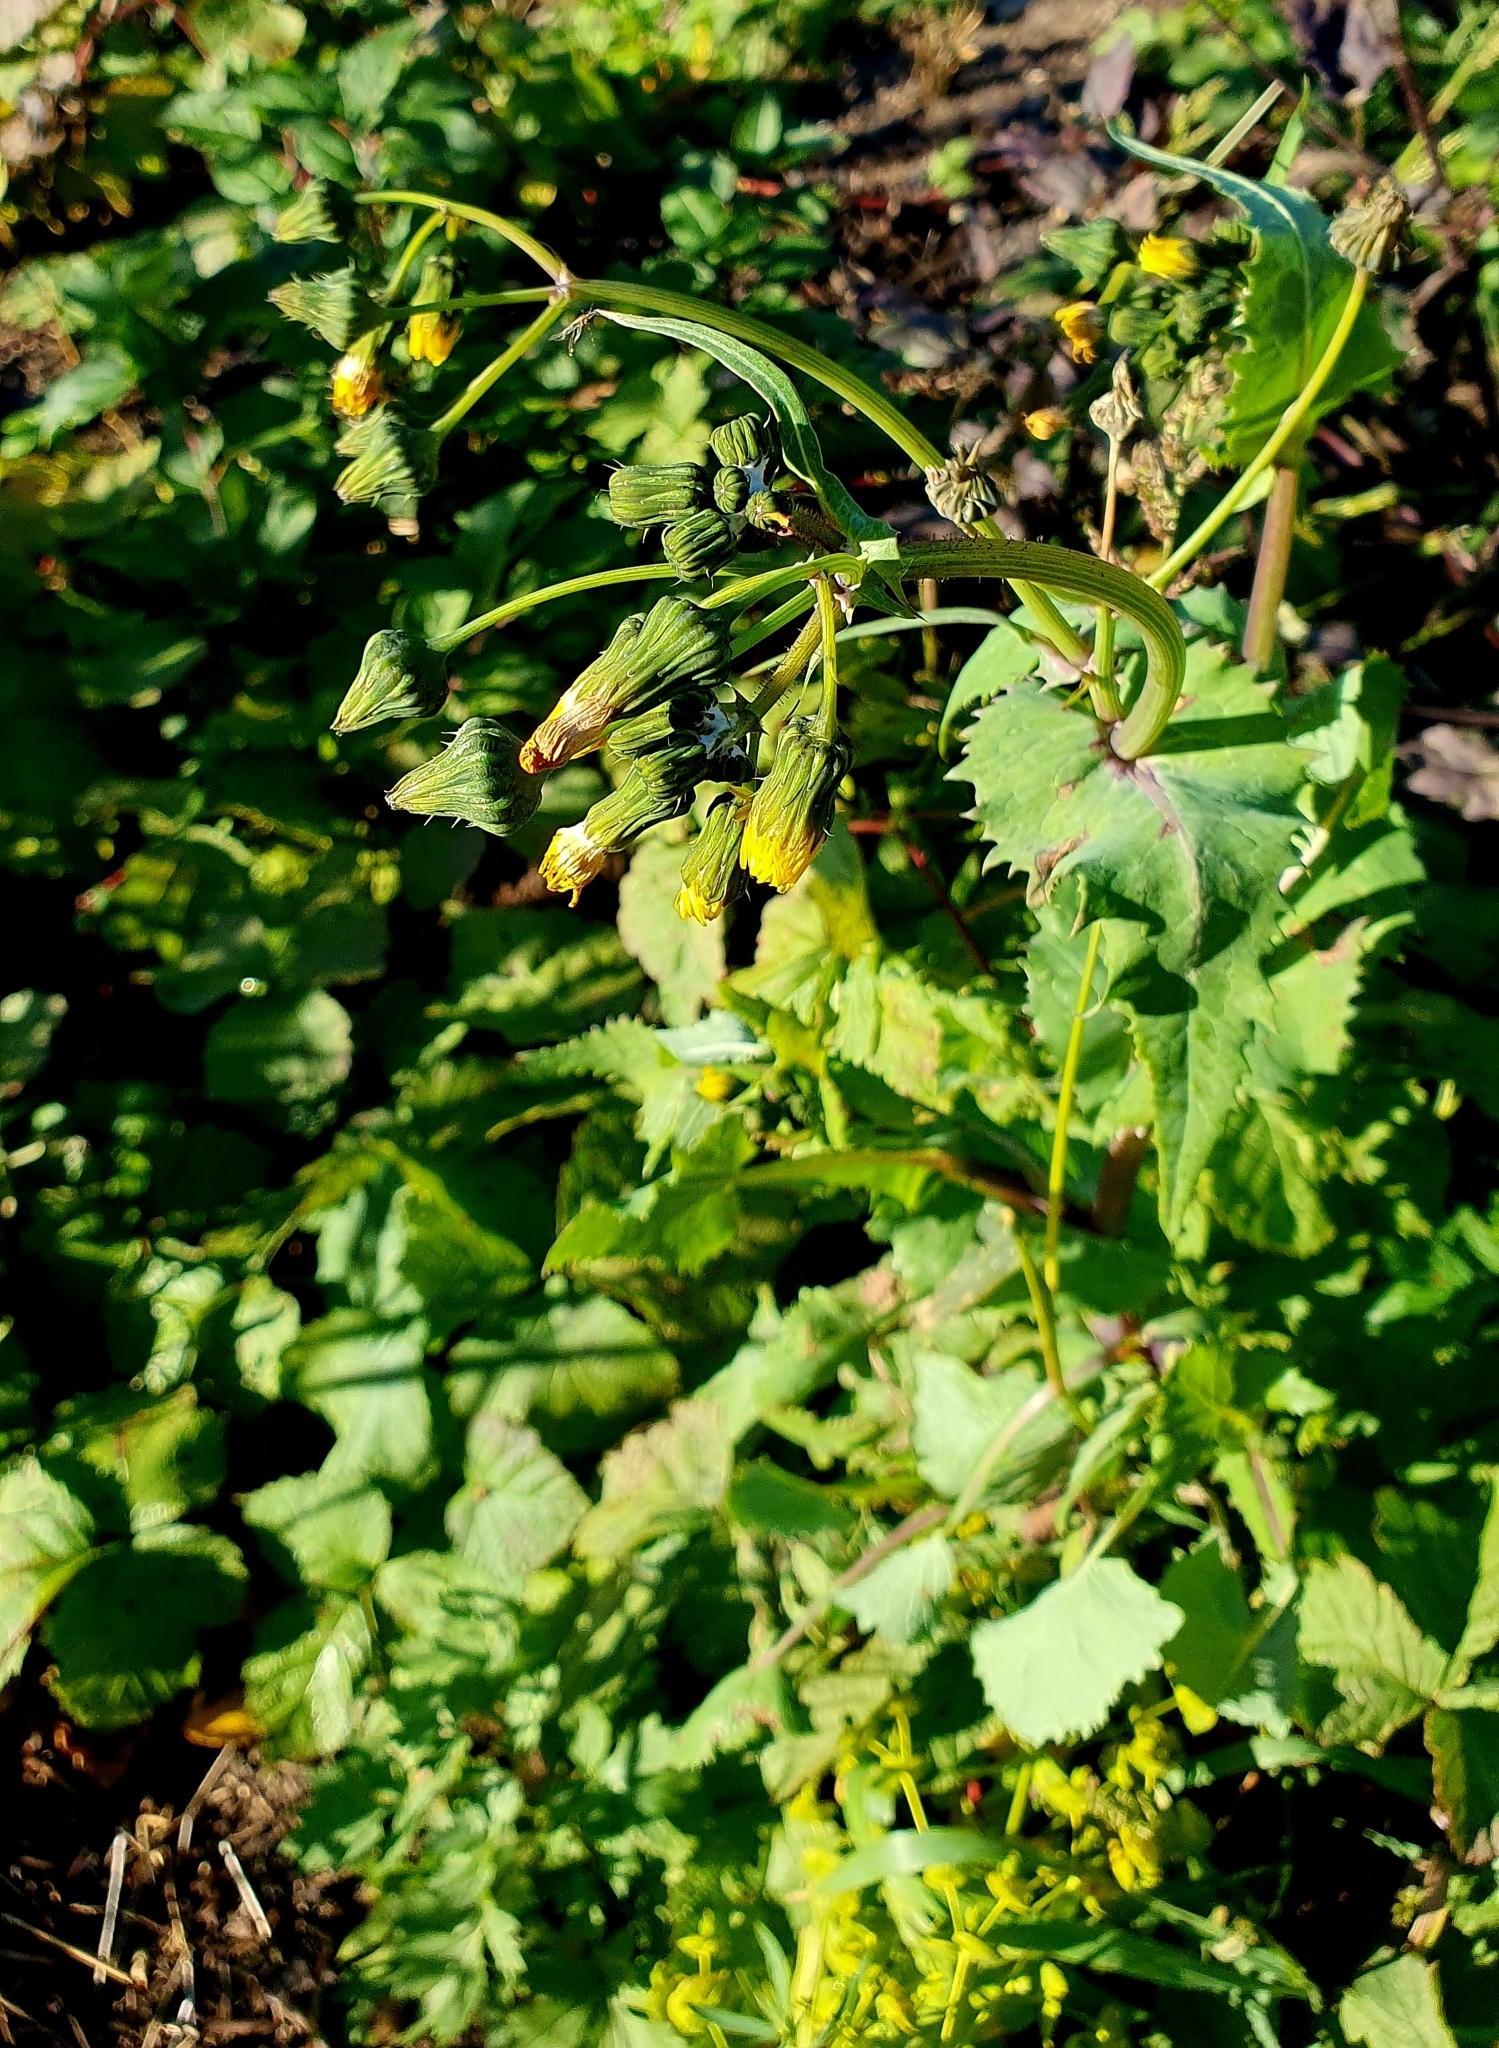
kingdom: Plantae
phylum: Tracheophyta
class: Magnoliopsida
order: Asterales
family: Asteraceae
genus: Sonchus
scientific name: Sonchus oleraceus
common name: Common sowthistle
